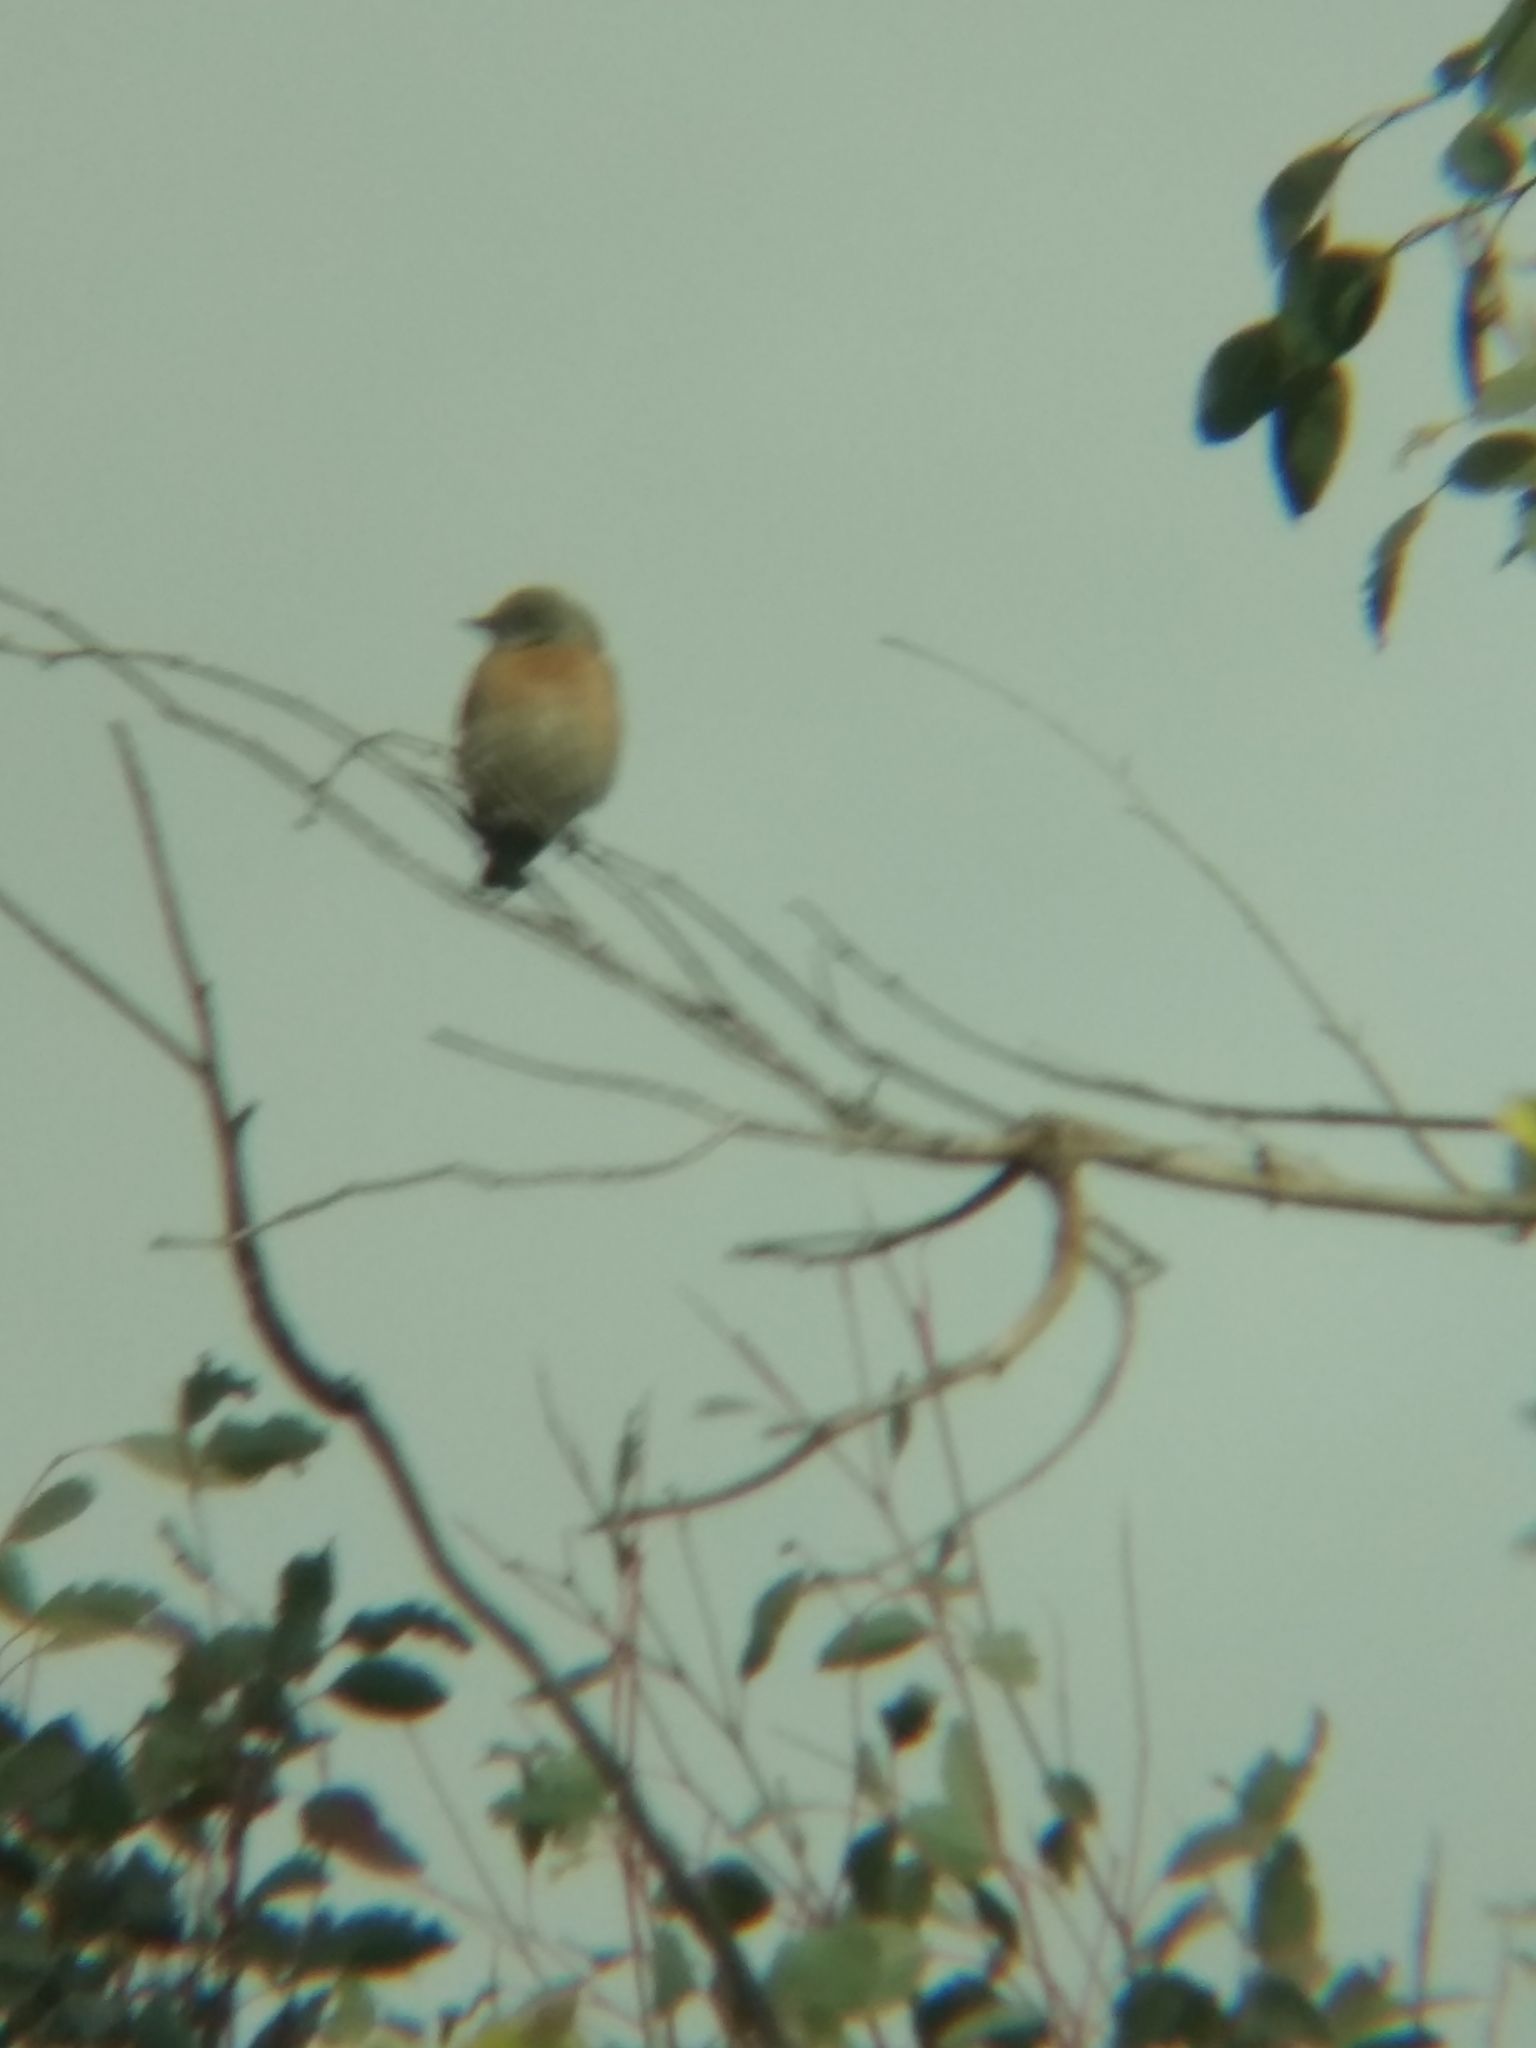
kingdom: Animalia
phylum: Chordata
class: Aves
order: Passeriformes
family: Turdidae
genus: Sialia
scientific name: Sialia mexicana
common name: Western bluebird
